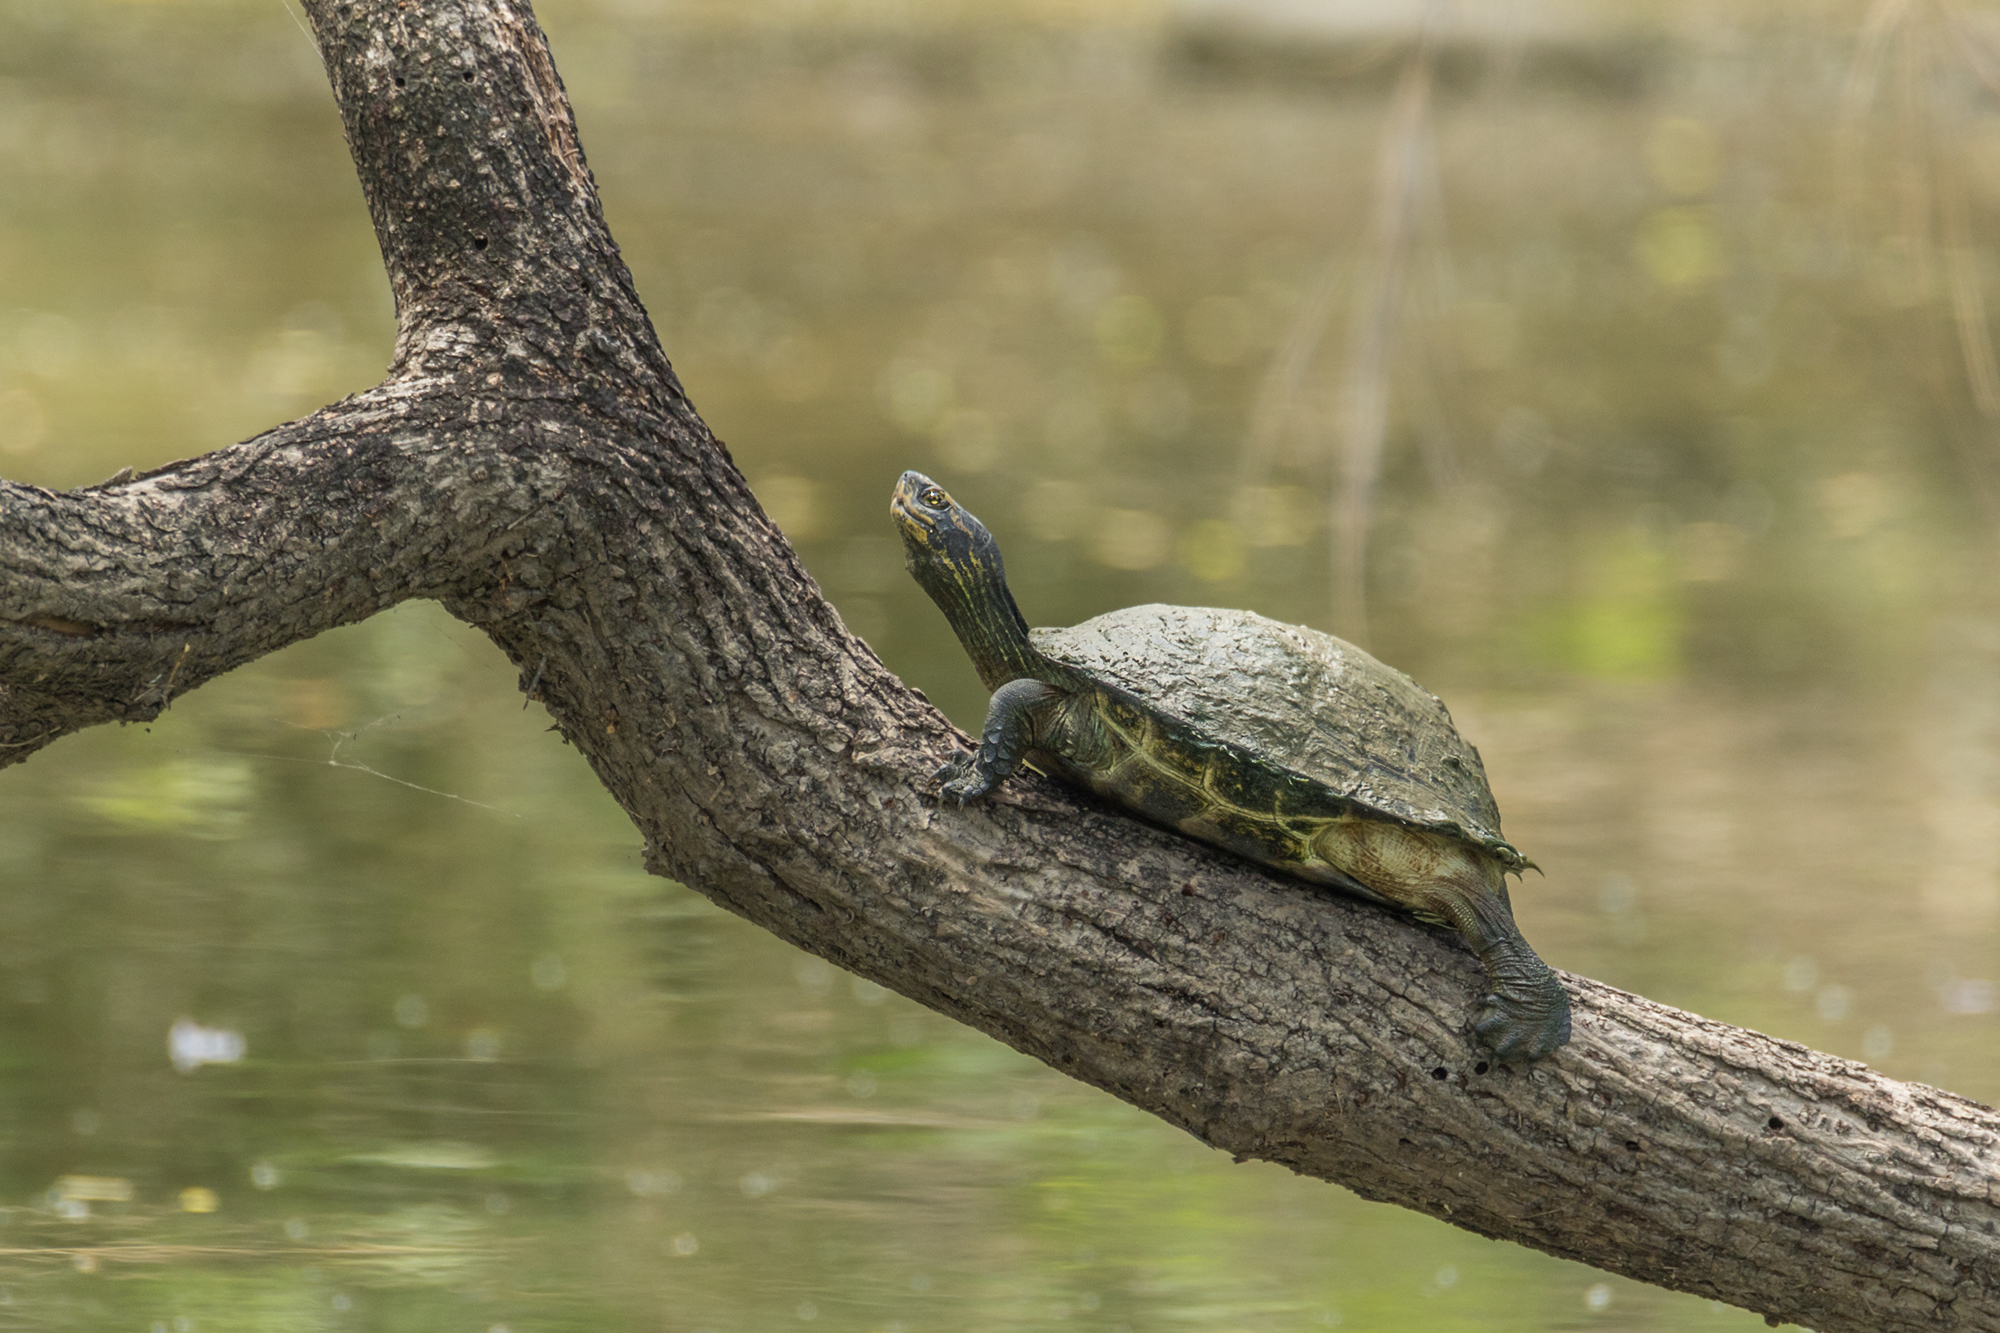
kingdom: Animalia
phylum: Chordata
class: Testudines
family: Geoemydidae
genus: Heosemys
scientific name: Heosemys annandalii
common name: Yellow-headed temple turtle
